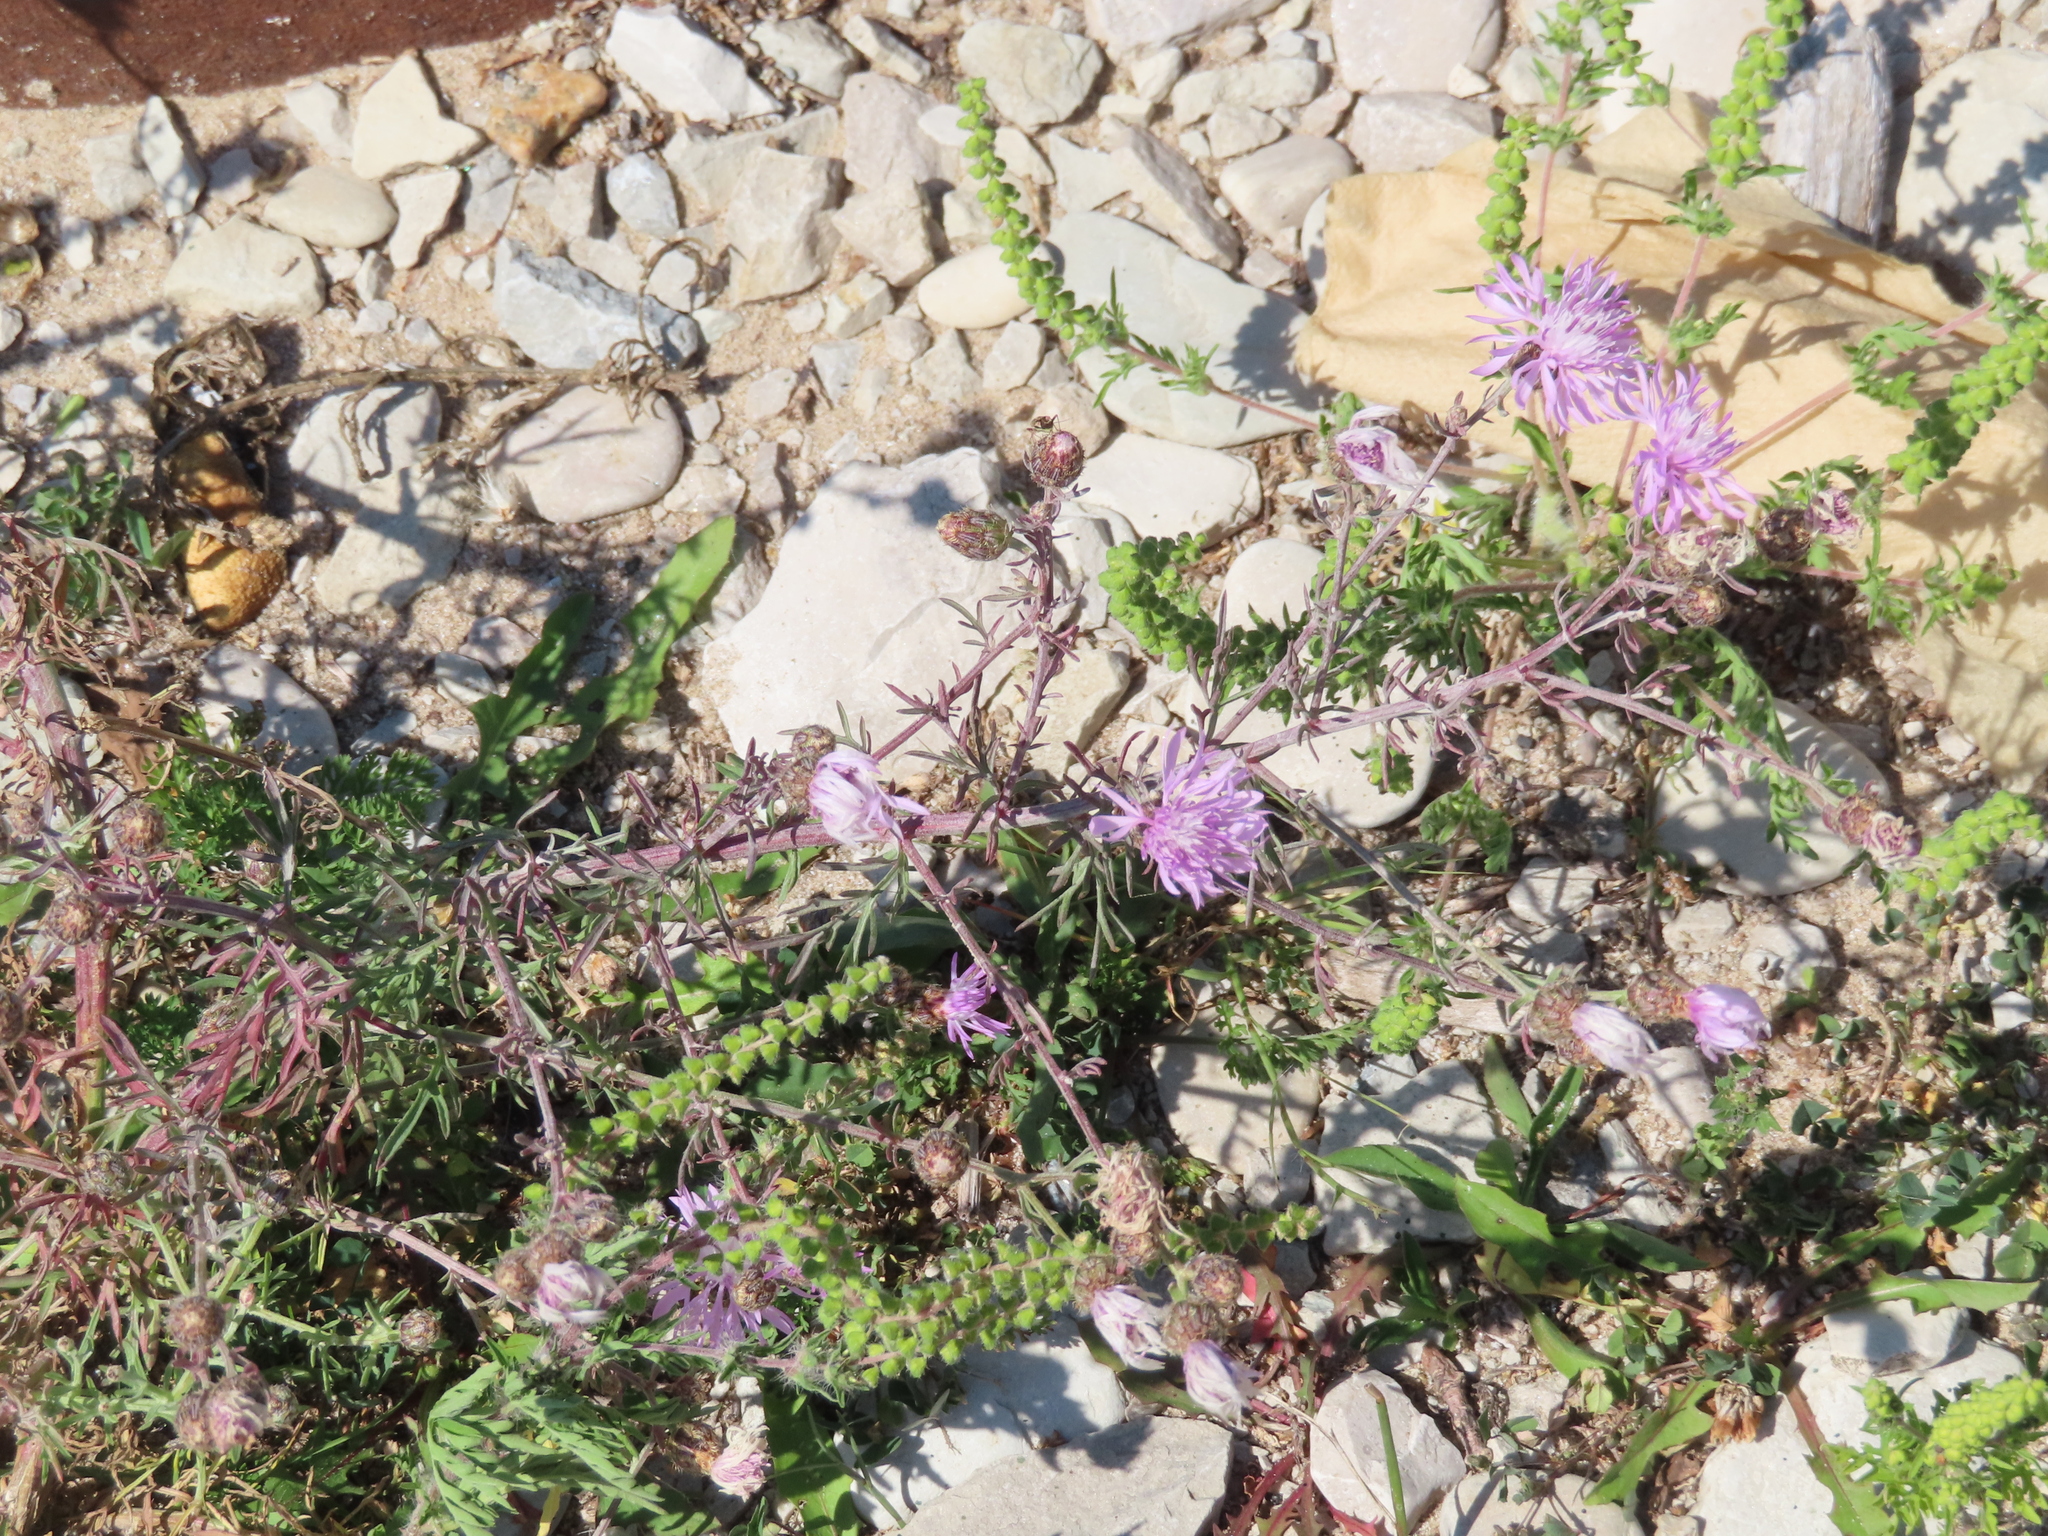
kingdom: Plantae
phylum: Tracheophyta
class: Magnoliopsida
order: Asterales
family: Asteraceae
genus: Centaurea
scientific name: Centaurea stoebe
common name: Spotted knapweed
